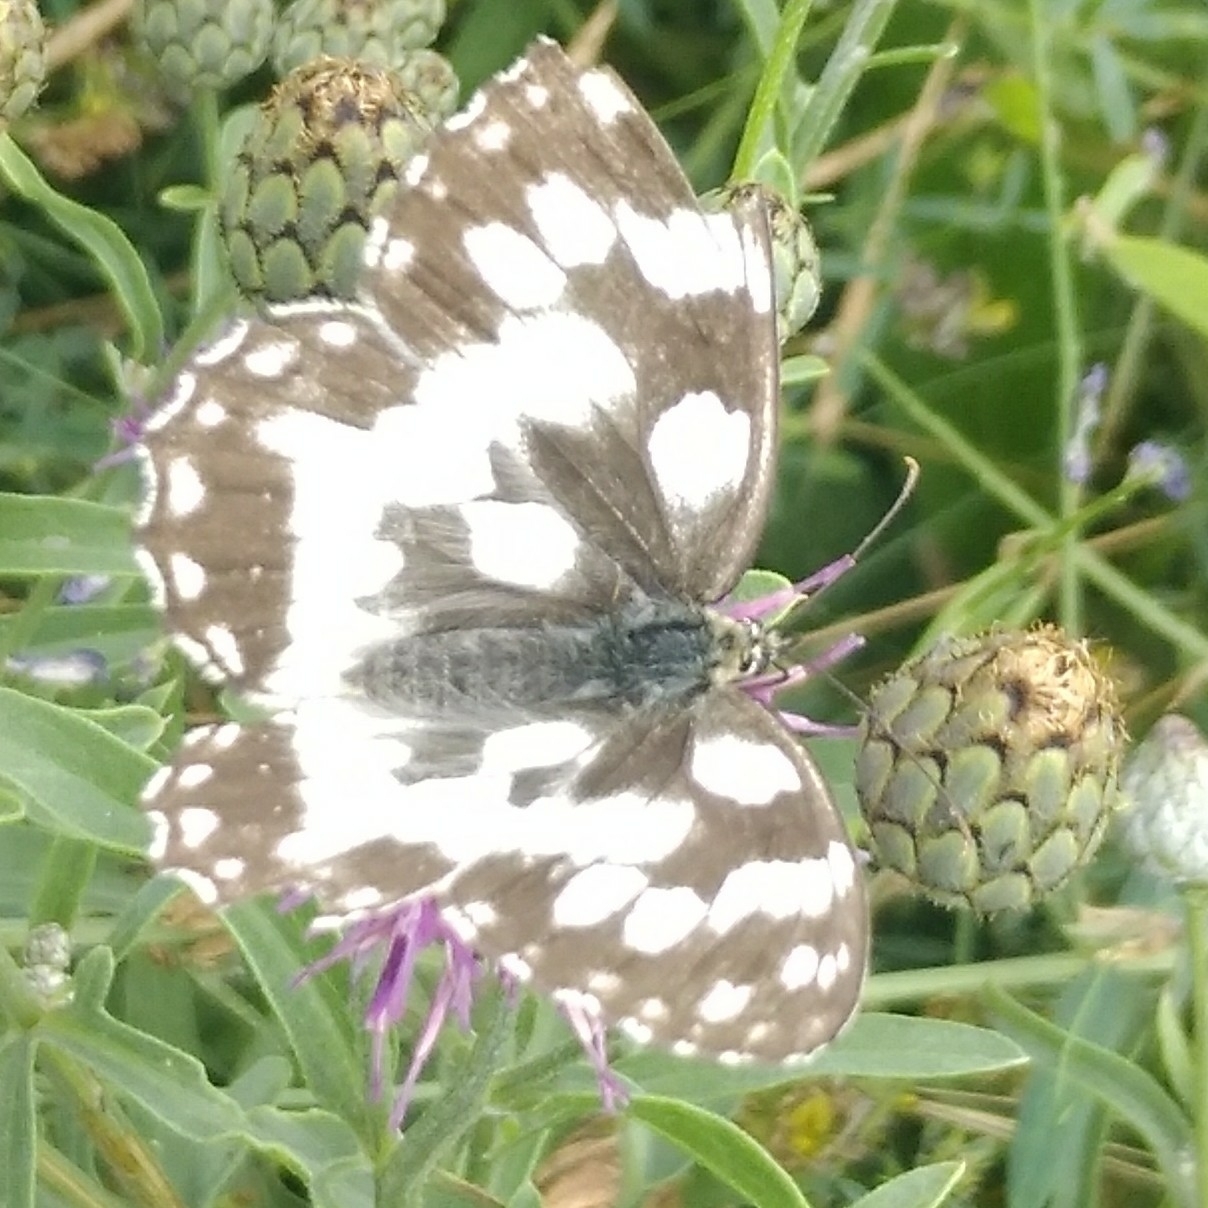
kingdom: Animalia
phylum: Arthropoda
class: Insecta
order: Lepidoptera
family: Nymphalidae
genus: Melanargia
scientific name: Melanargia galathea
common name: Marbled white
